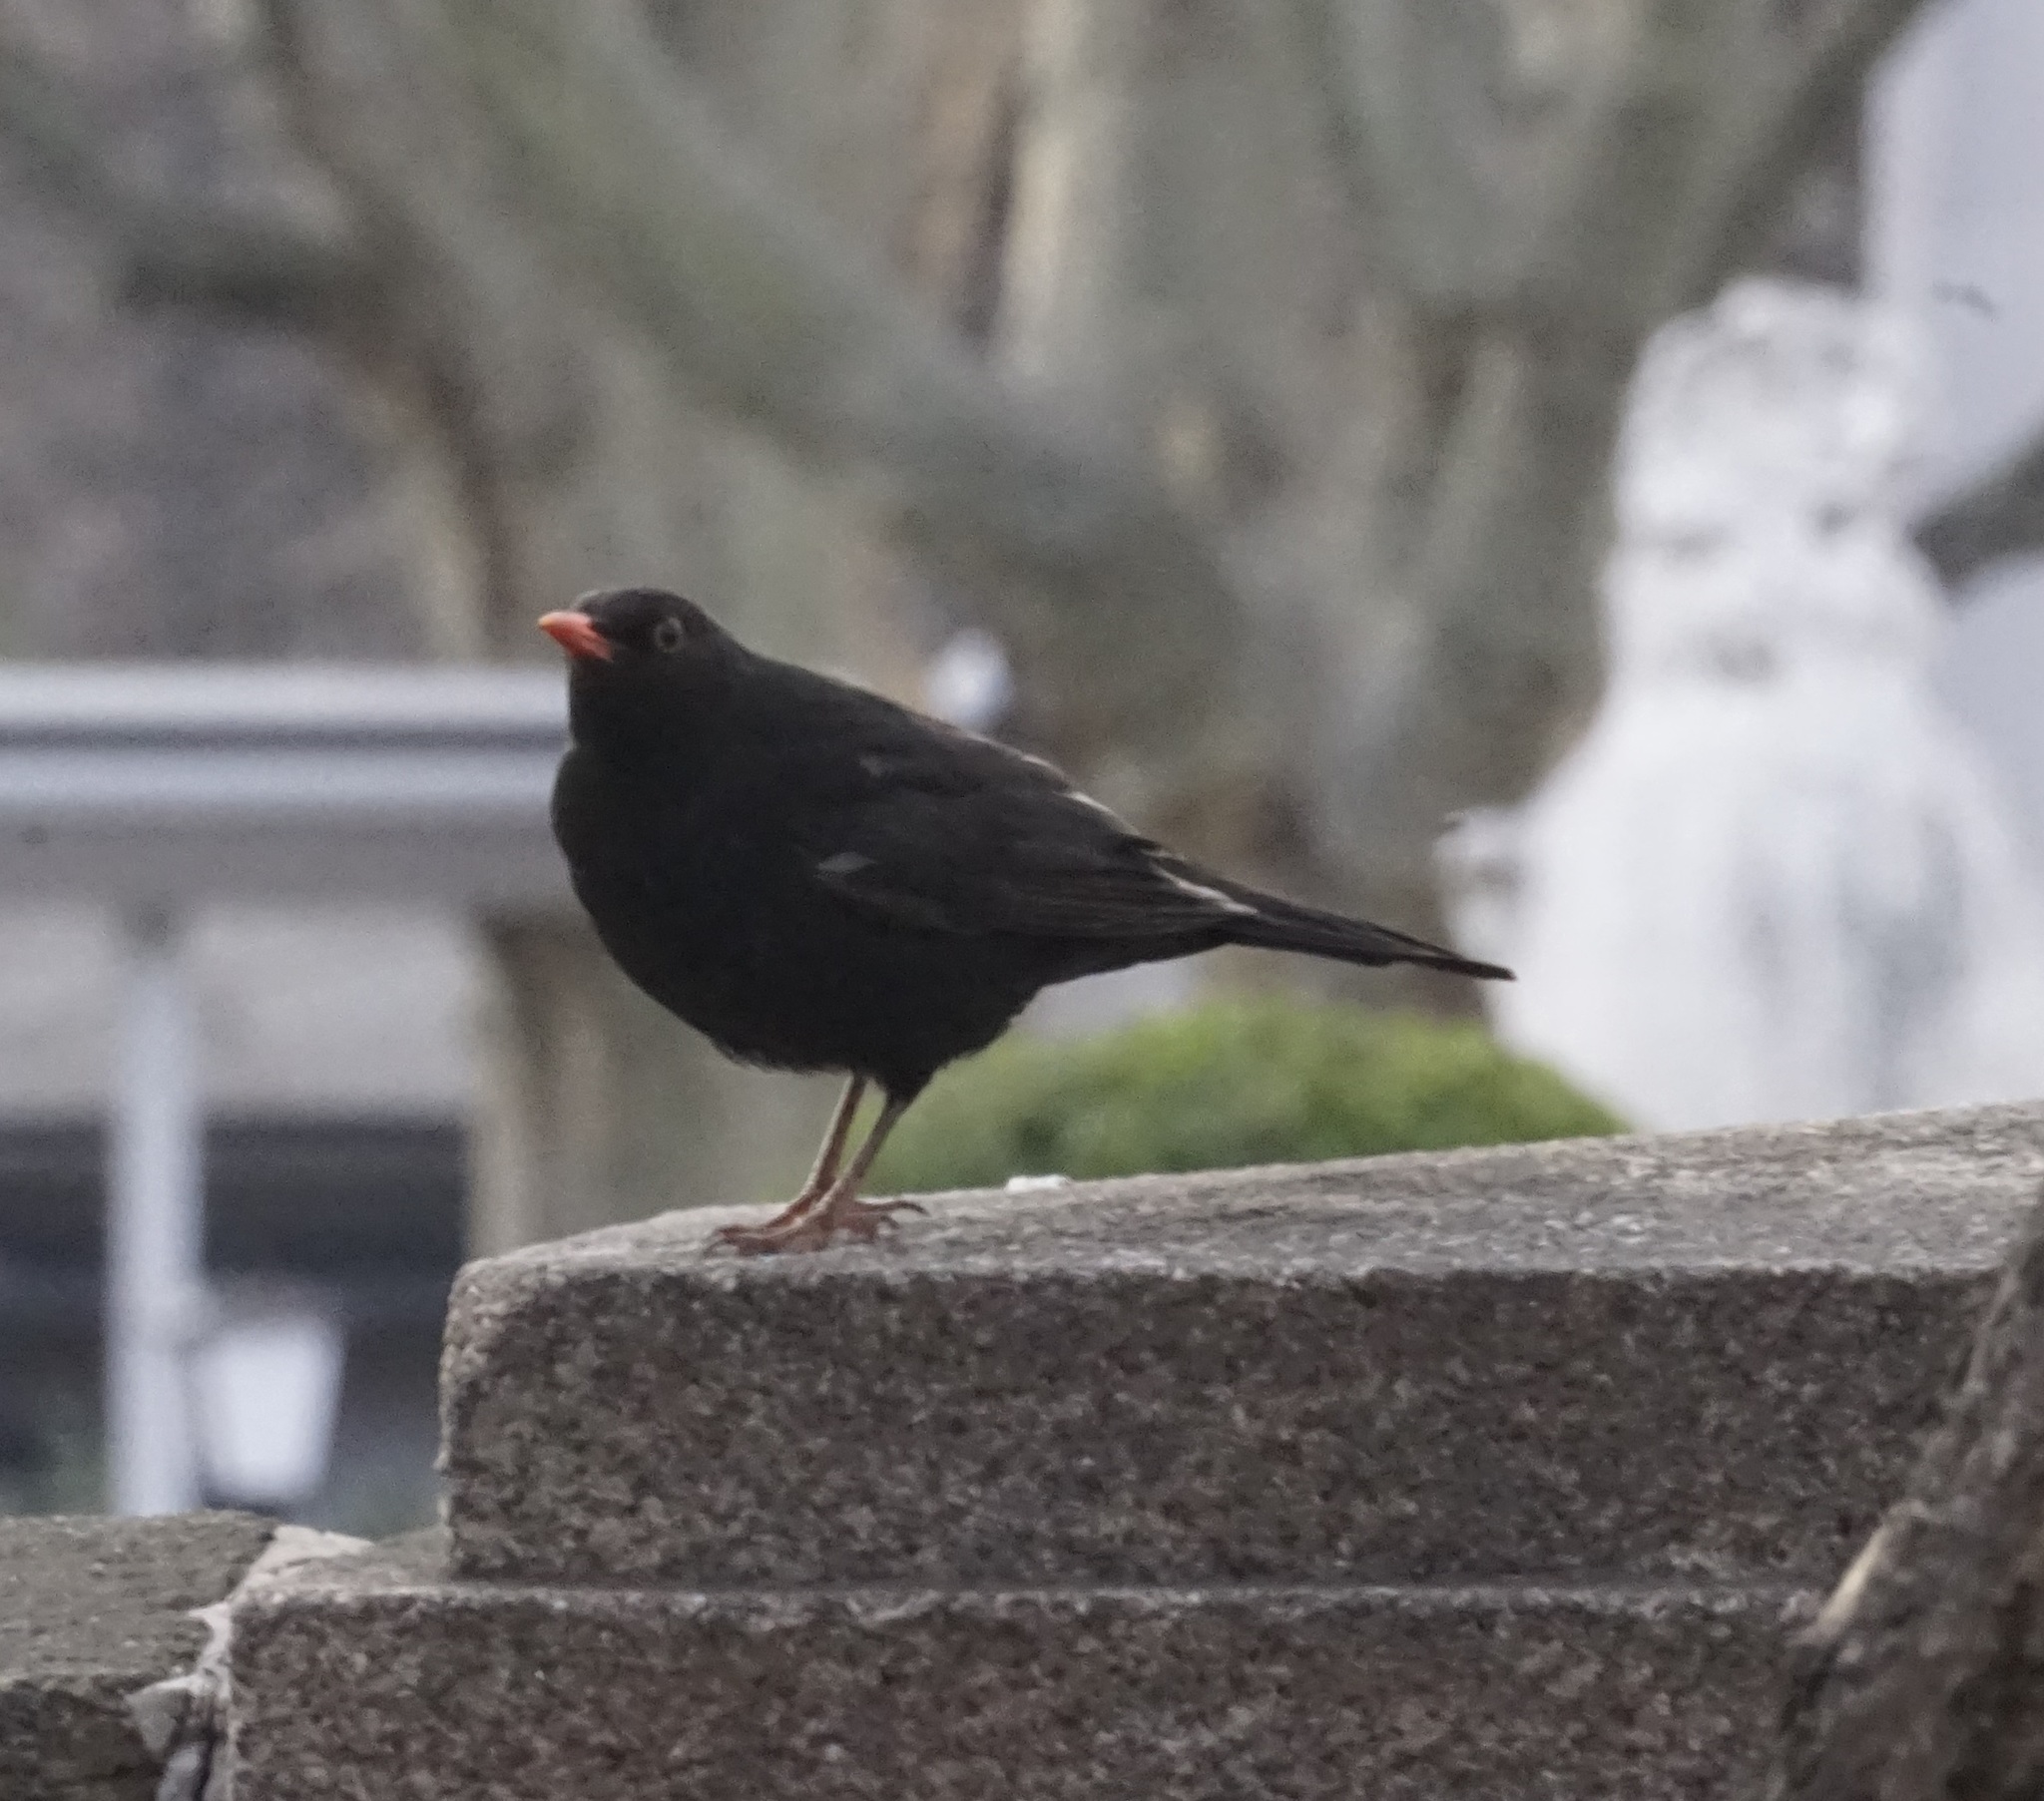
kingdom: Animalia
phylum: Chordata
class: Aves
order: Passeriformes
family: Turdidae
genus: Turdus
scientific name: Turdus merula
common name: Common blackbird
